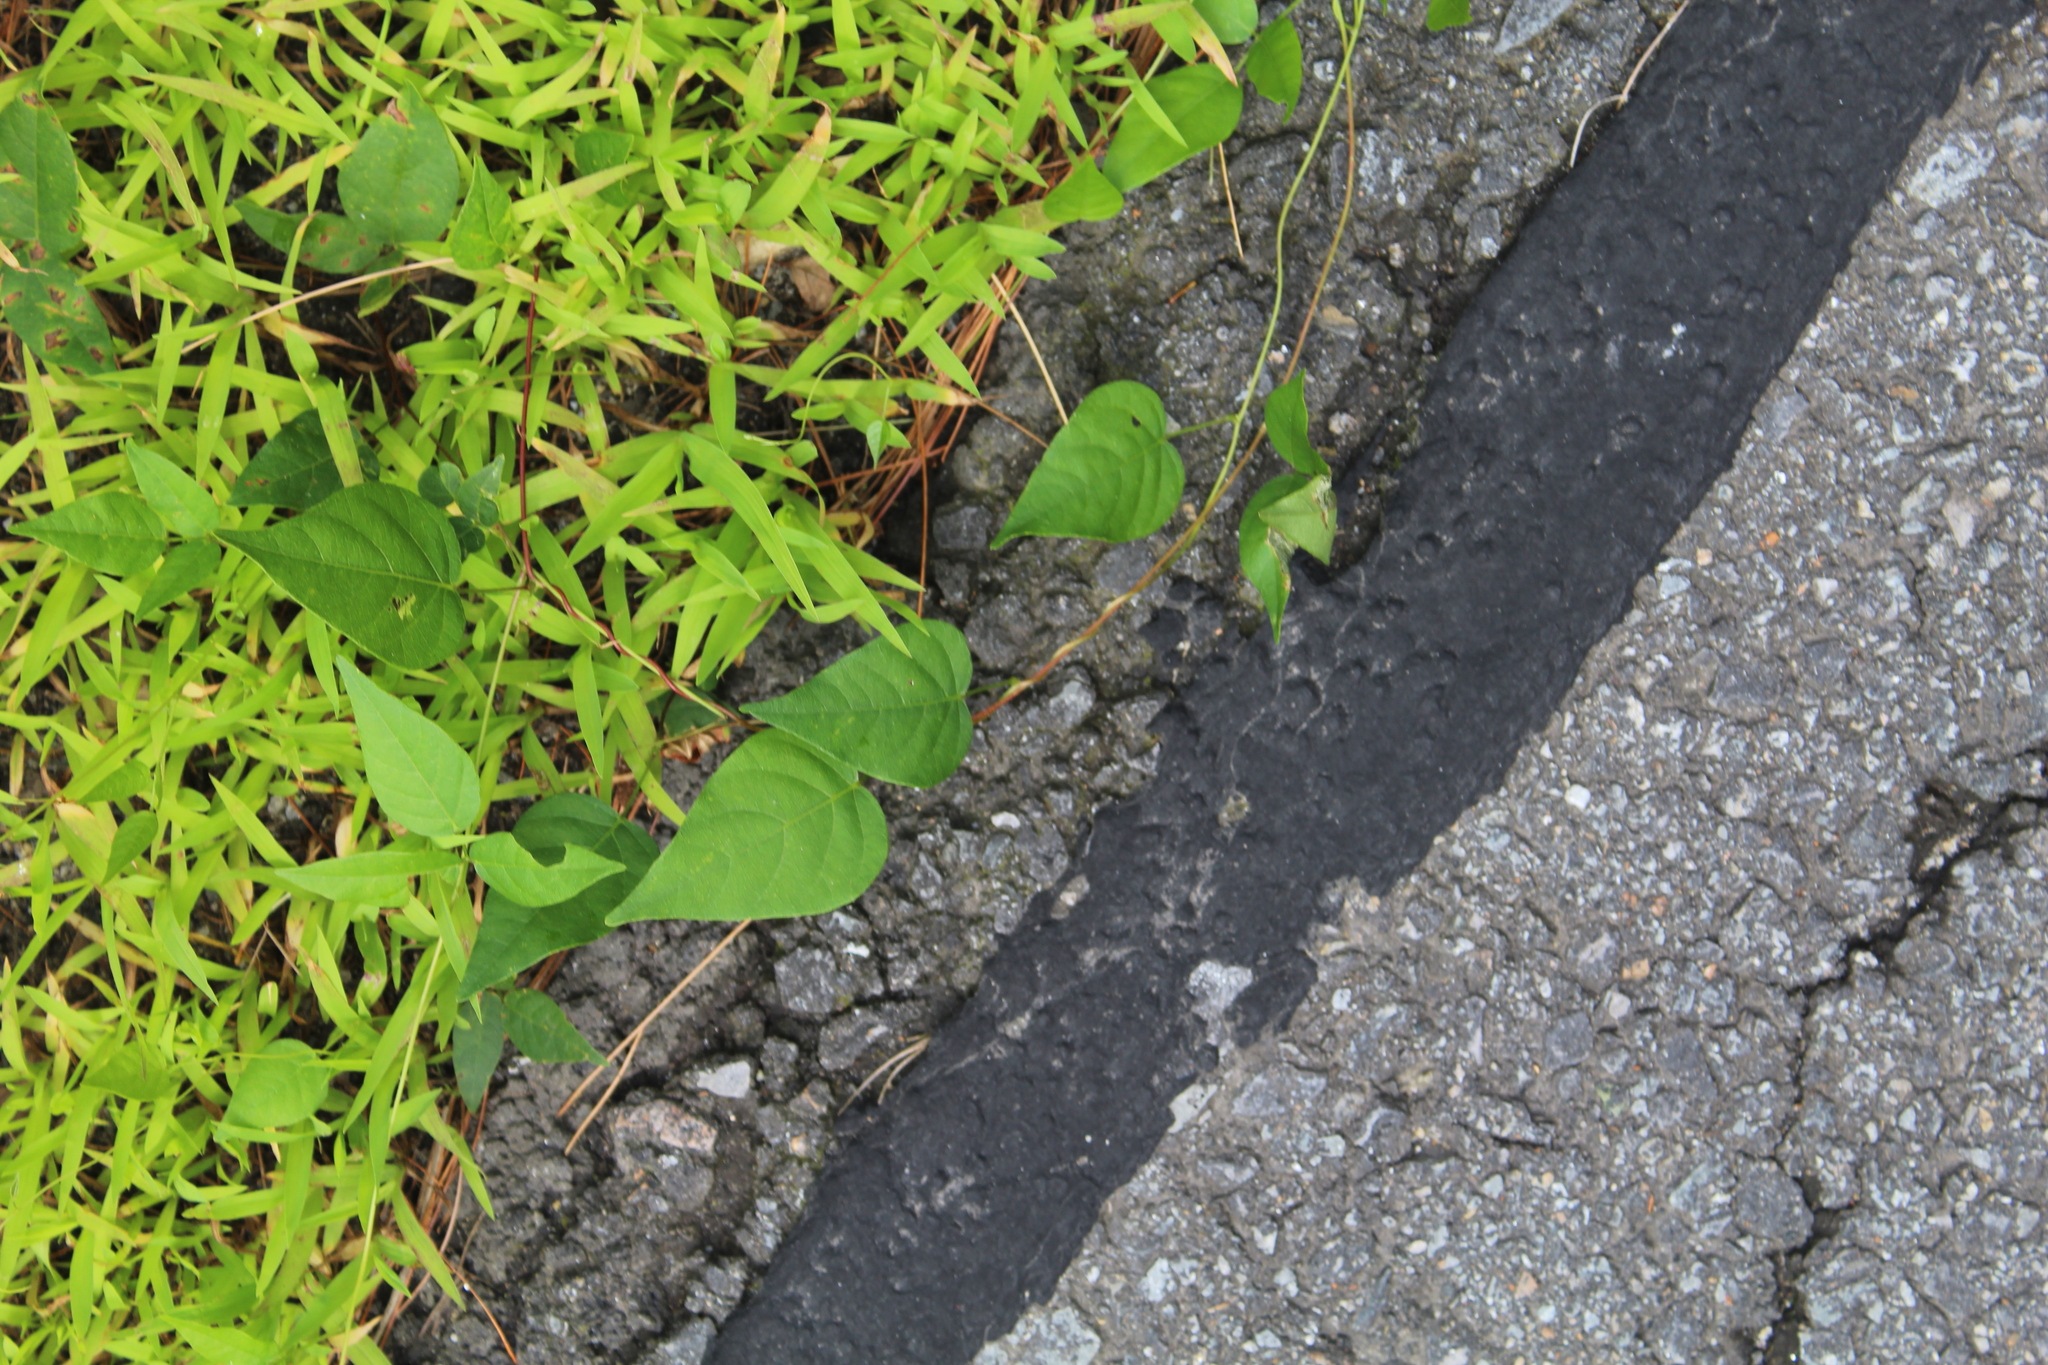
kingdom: Plantae
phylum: Tracheophyta
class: Magnoliopsida
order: Fabales
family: Fabaceae
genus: Apios
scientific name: Apios americana
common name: American potato-bean
